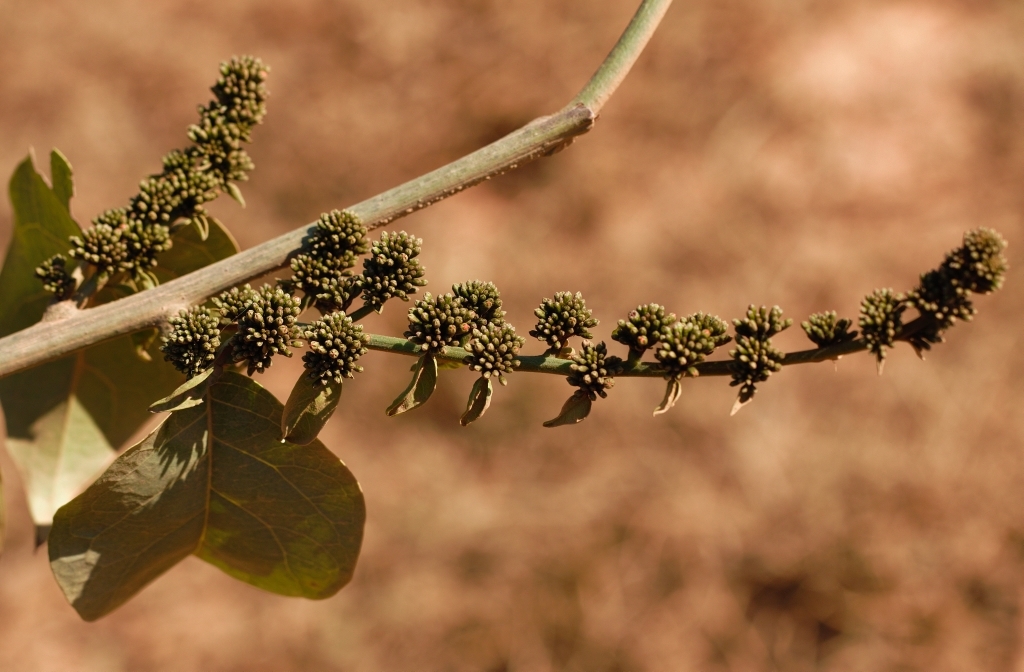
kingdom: Plantae
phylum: Tracheophyta
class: Magnoliopsida
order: Myrtales
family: Combretaceae
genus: Combretum
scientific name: Combretum paniculatum
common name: Fire vine
